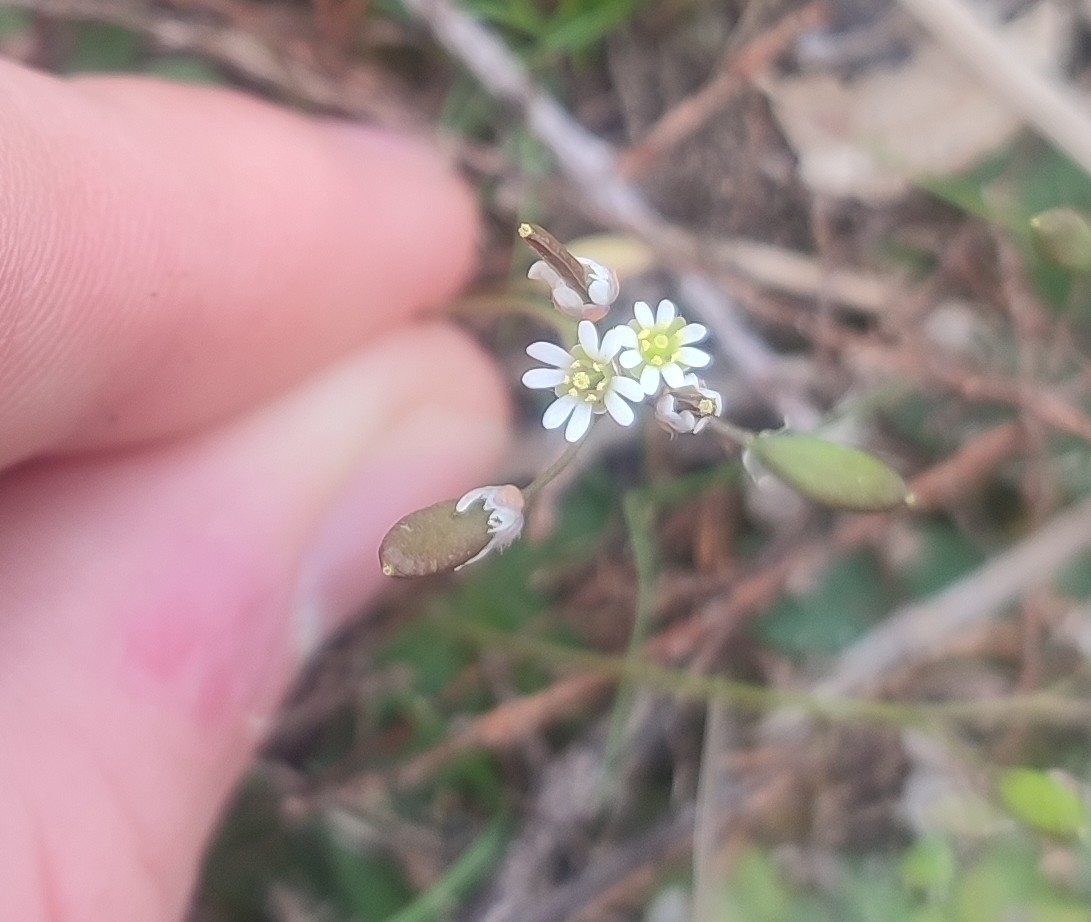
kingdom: Plantae
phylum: Tracheophyta
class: Magnoliopsida
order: Brassicales
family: Brassicaceae
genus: Draba
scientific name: Draba verna
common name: Spring draba
